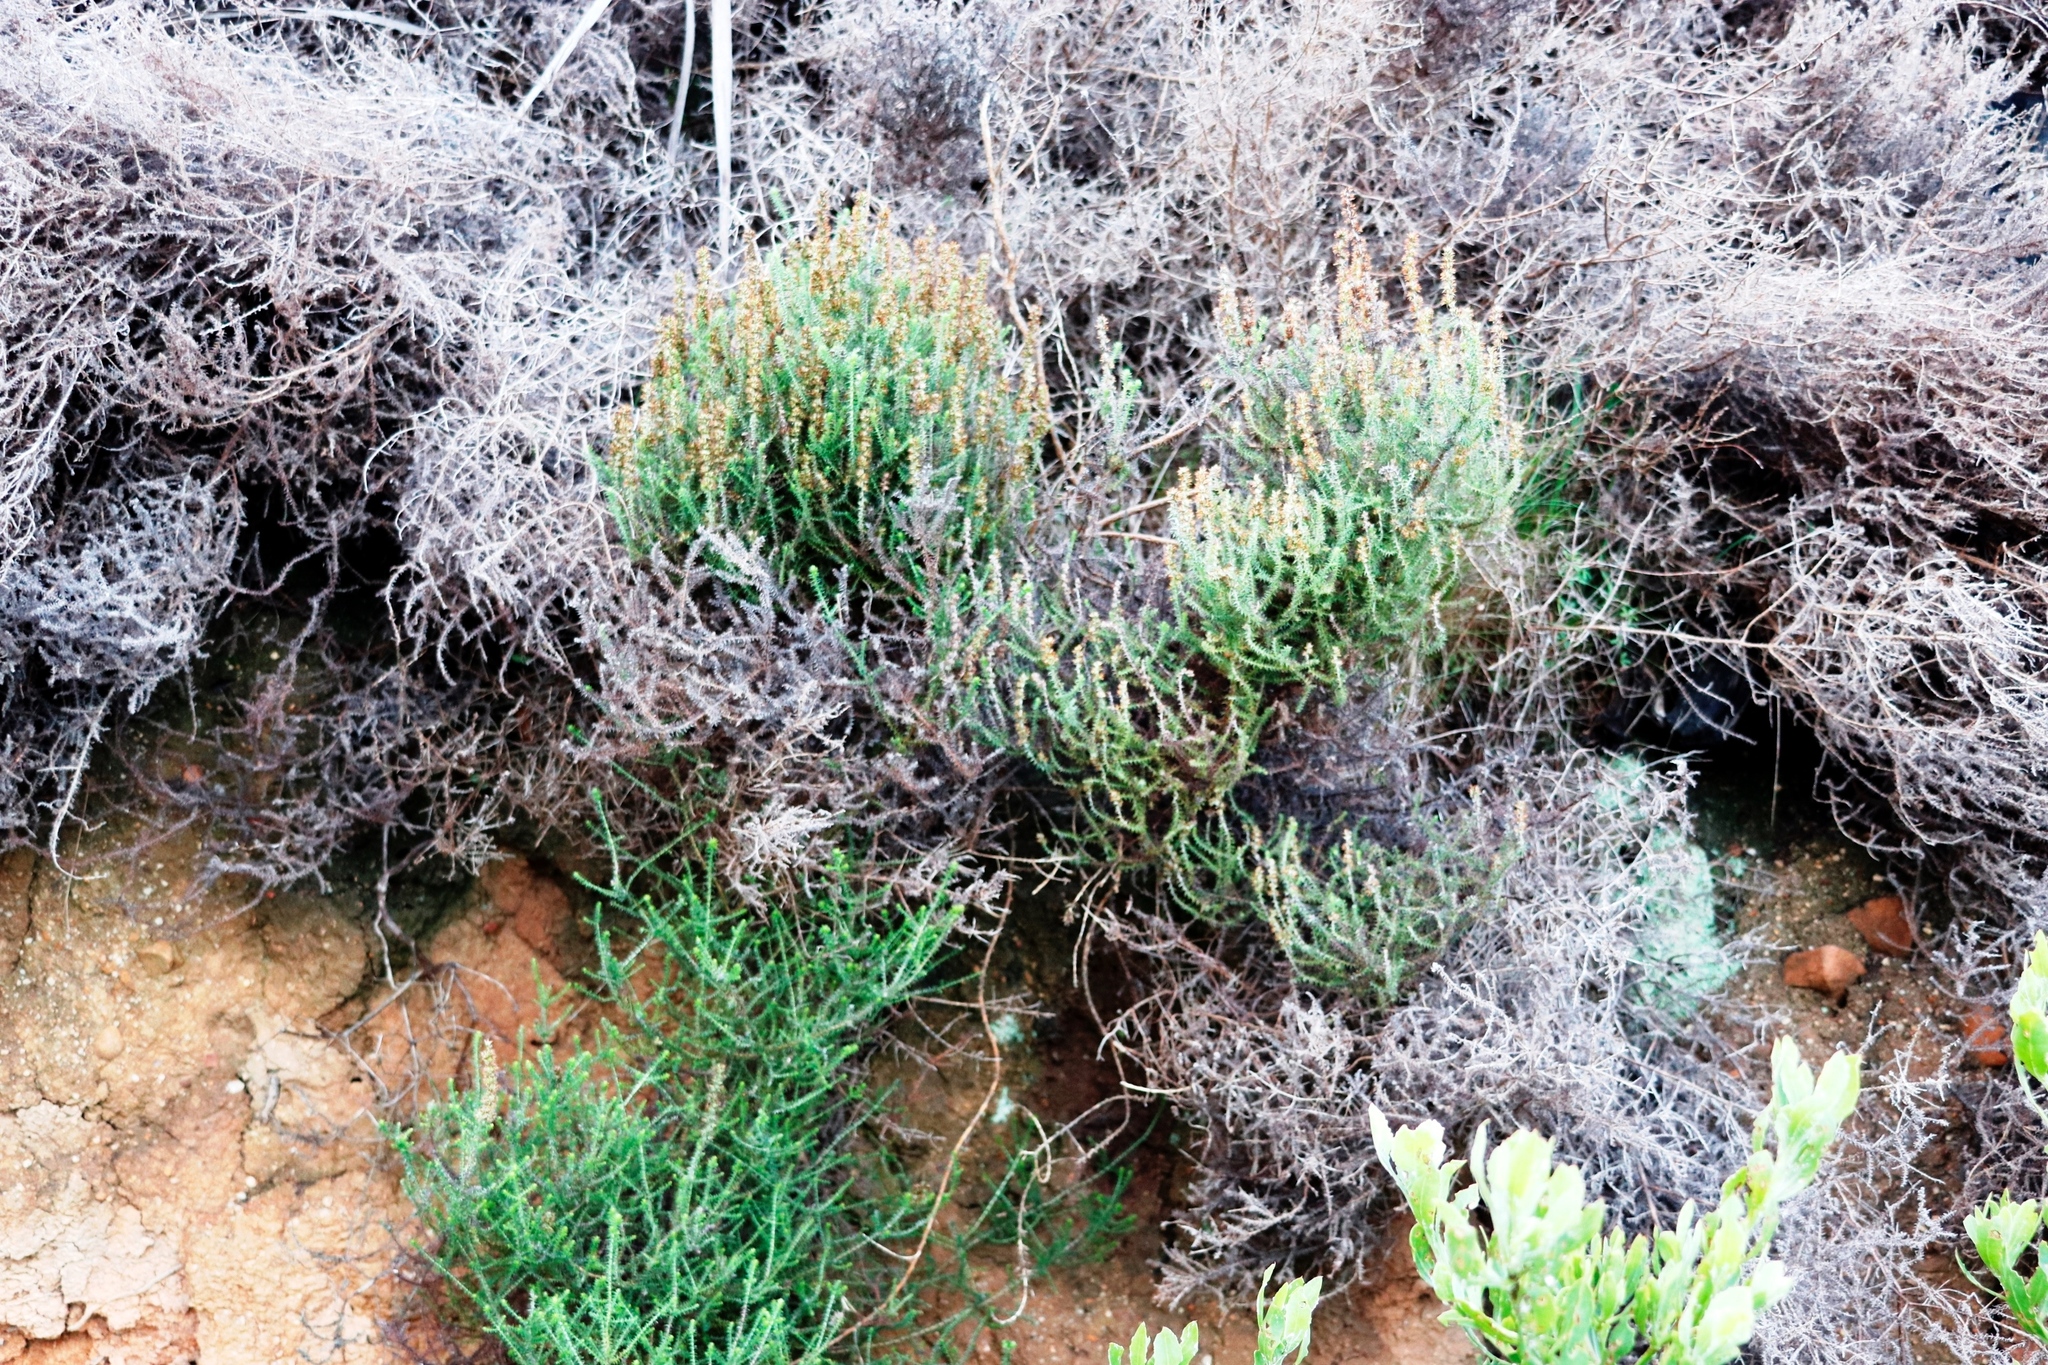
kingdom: Plantae
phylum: Tracheophyta
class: Magnoliopsida
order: Asterales
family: Asteraceae
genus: Seriphium
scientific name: Seriphium cinereum
